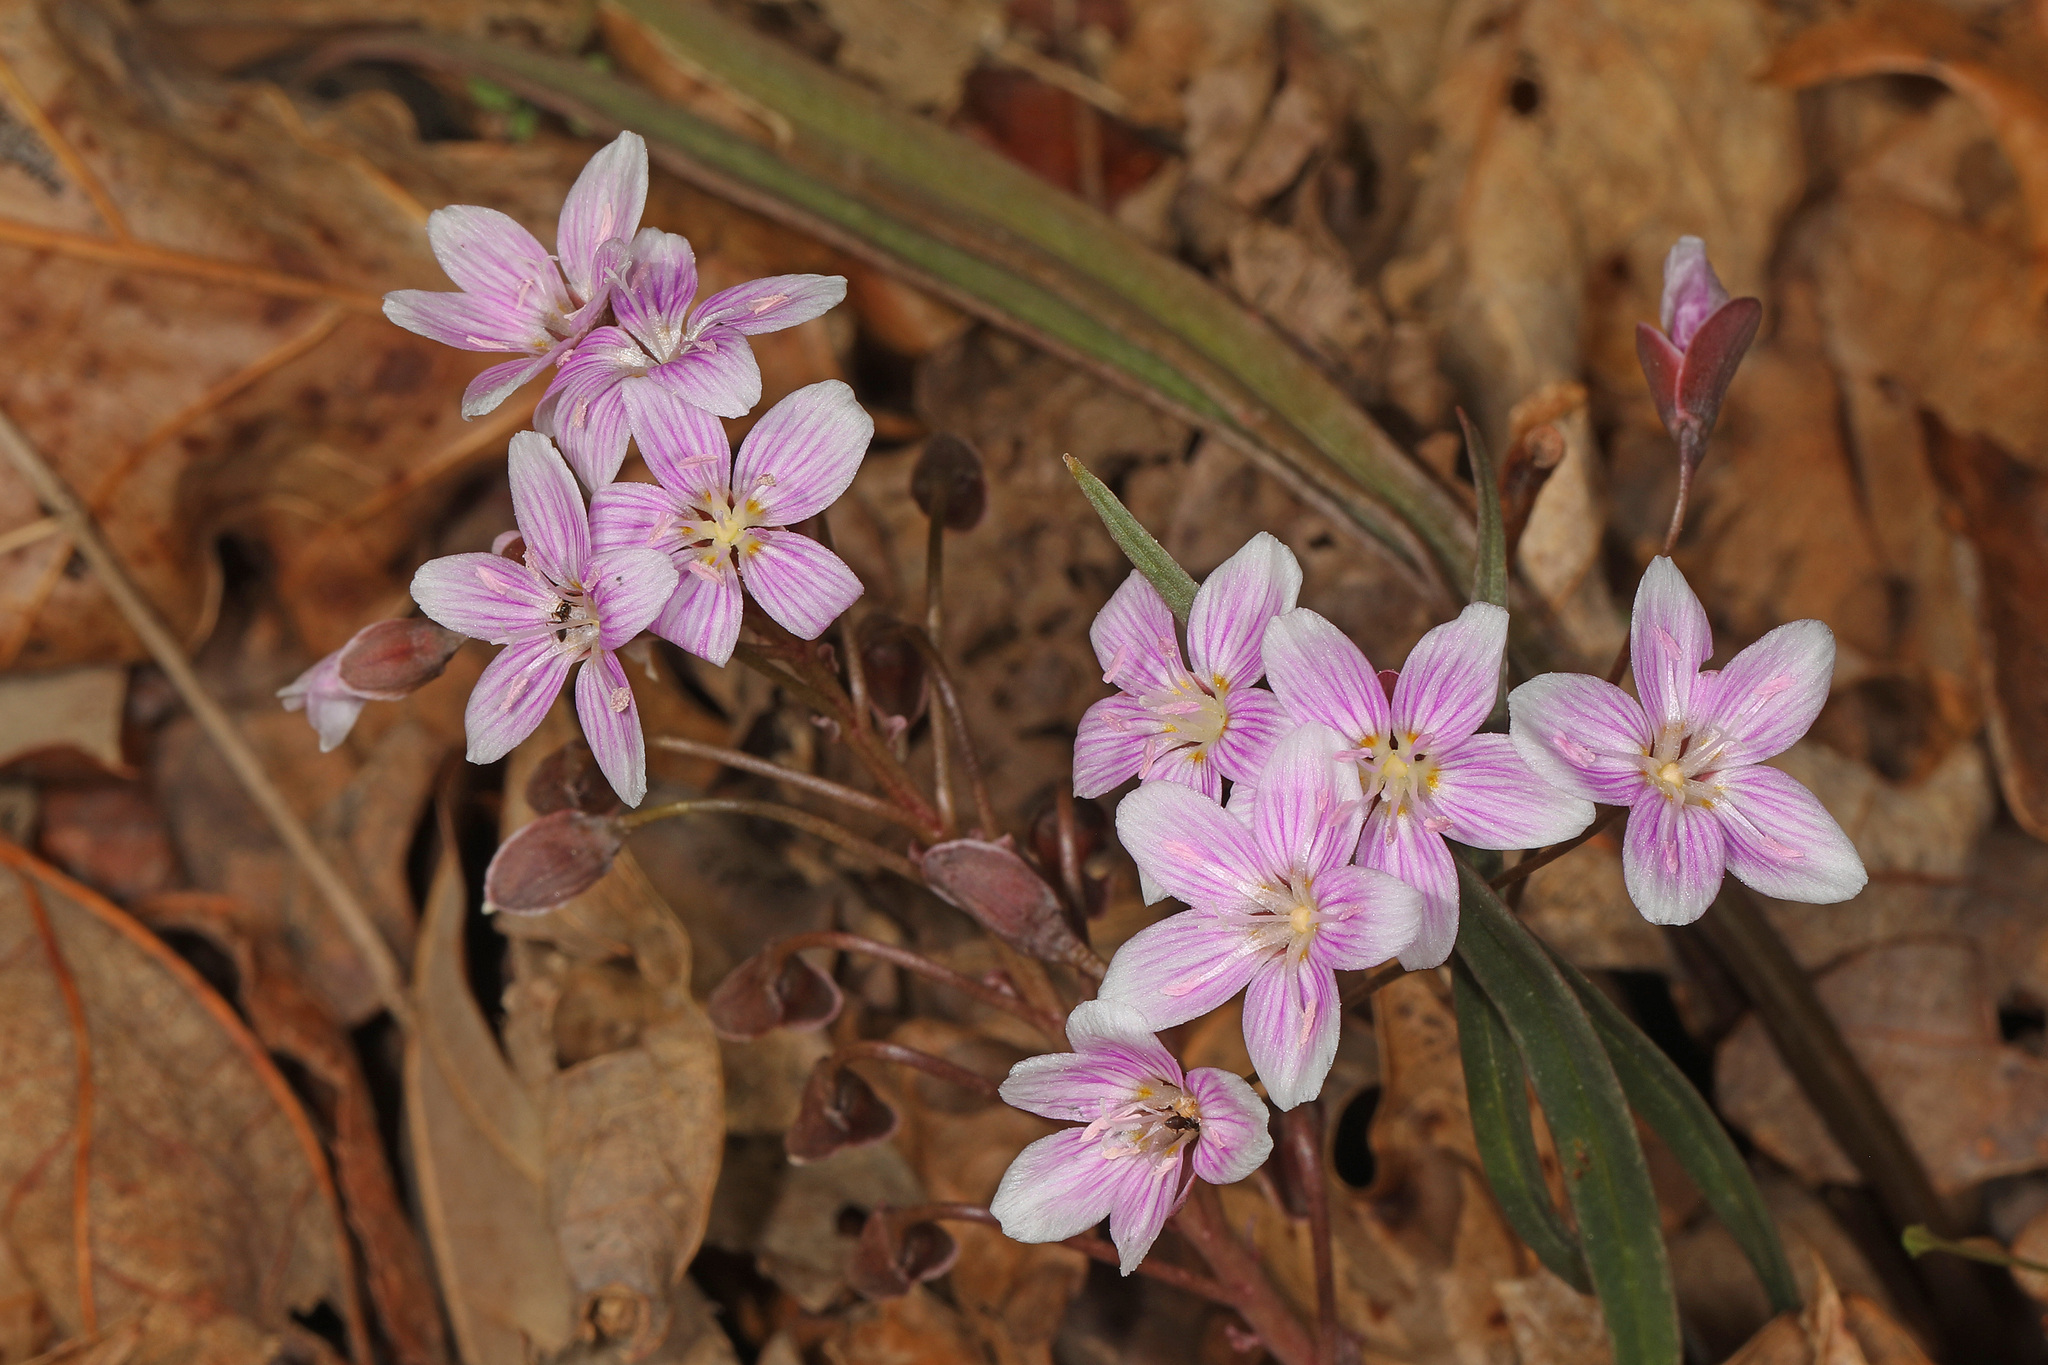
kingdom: Plantae
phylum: Tracheophyta
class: Magnoliopsida
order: Caryophyllales
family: Montiaceae
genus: Claytonia
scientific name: Claytonia virginica
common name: Virginia springbeauty
